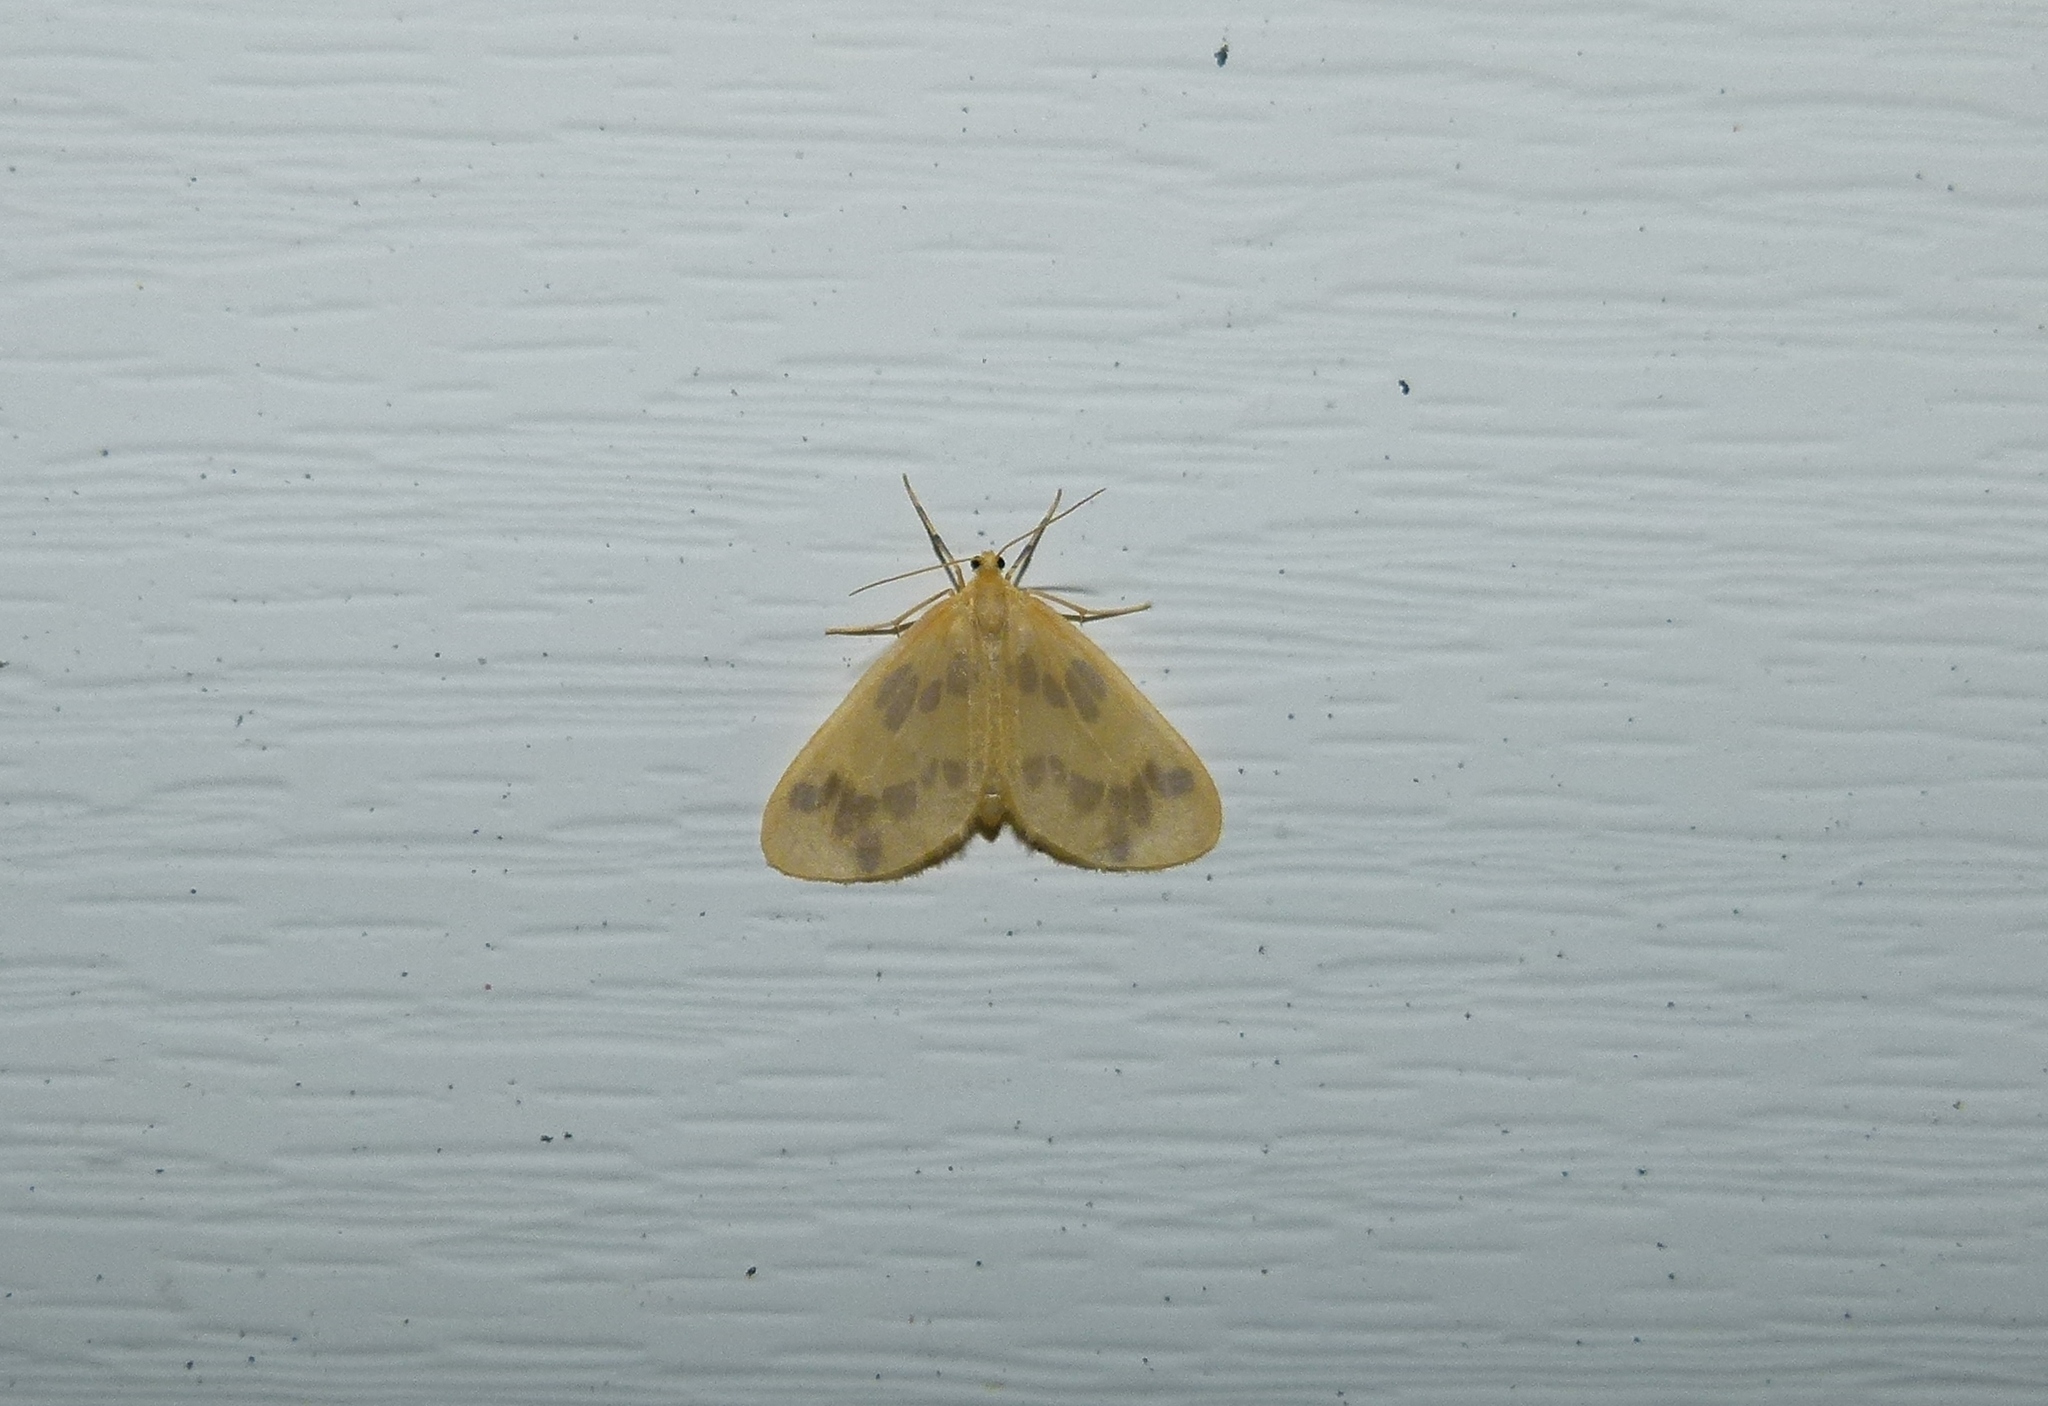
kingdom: Animalia
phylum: Arthropoda
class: Insecta
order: Lepidoptera
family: Geometridae
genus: Eubaphe
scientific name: Eubaphe mendica
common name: Beggar
